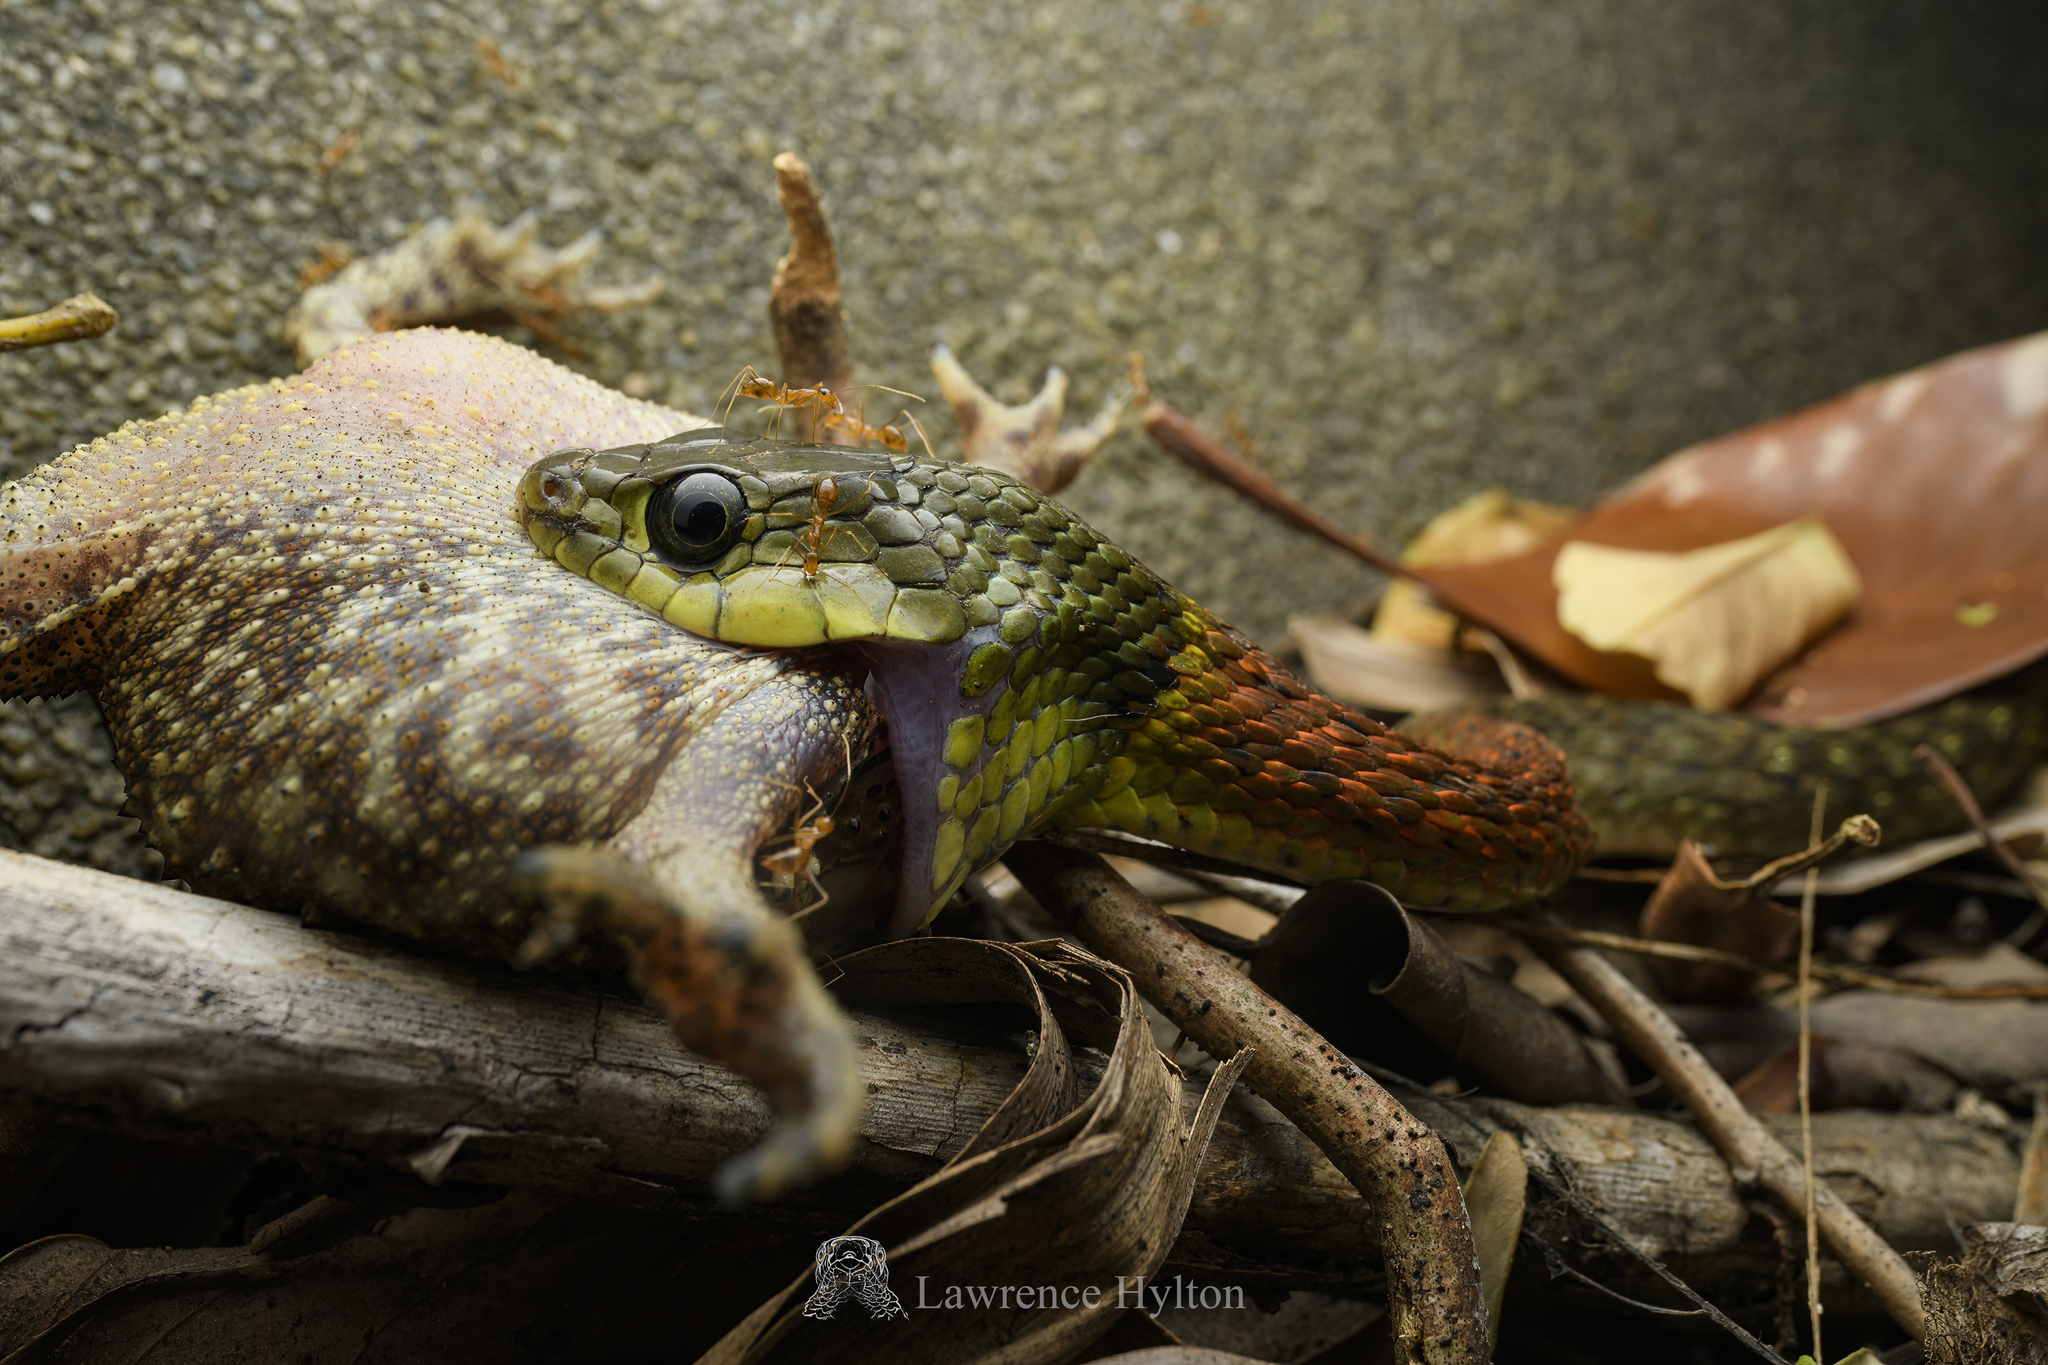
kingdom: Animalia
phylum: Chordata
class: Squamata
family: Colubridae
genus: Rhabdophis
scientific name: Rhabdophis helleri
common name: Heller’s red-necked keelback
